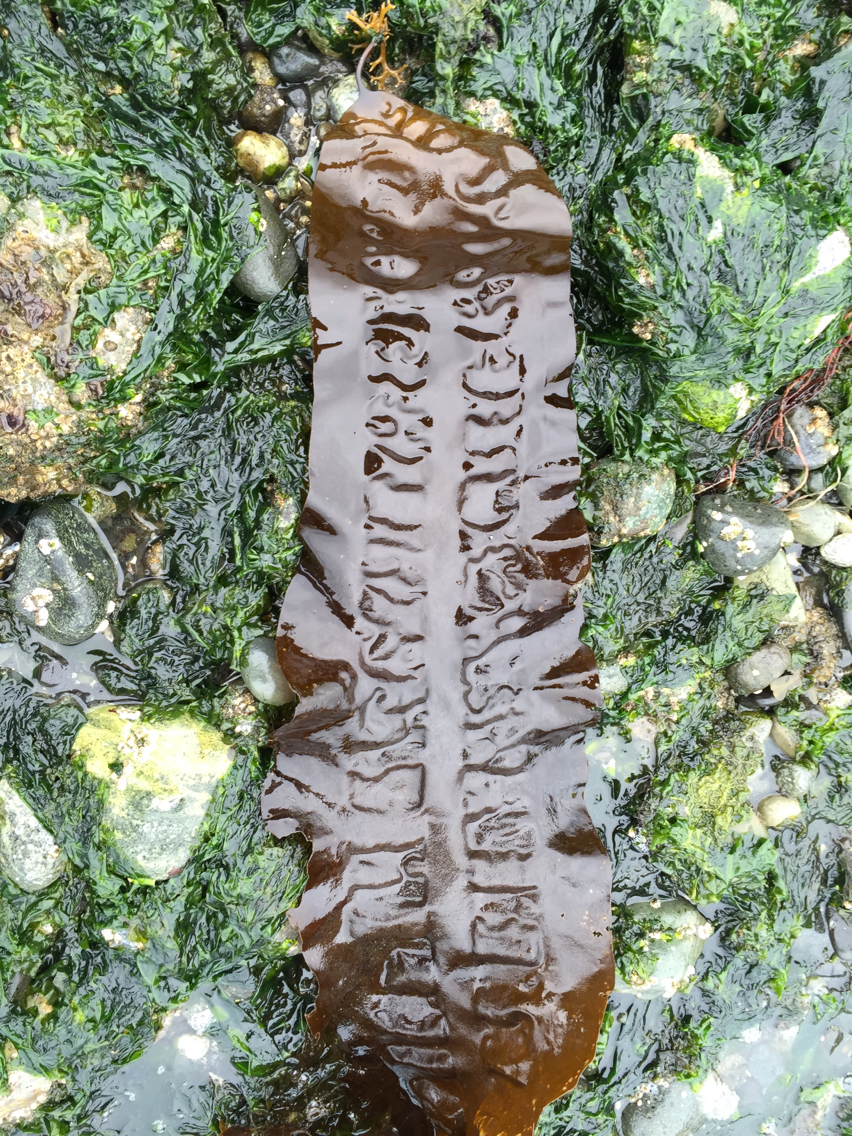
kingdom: Chromista
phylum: Ochrophyta
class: Phaeophyceae
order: Laminariales
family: Laminariaceae
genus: Saccharina
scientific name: Saccharina latissima
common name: Poor man's weather glass
